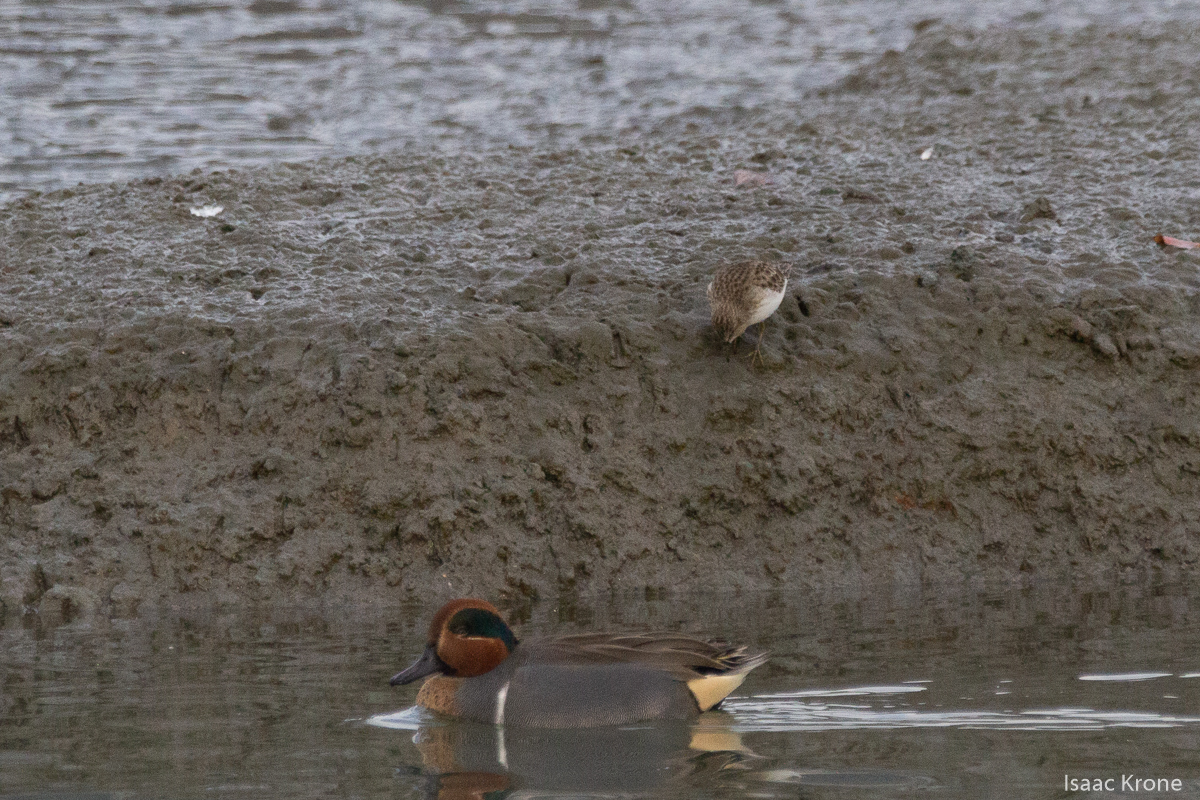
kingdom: Animalia
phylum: Chordata
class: Aves
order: Charadriiformes
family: Scolopacidae
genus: Calidris
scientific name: Calidris minutilla
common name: Least sandpiper
